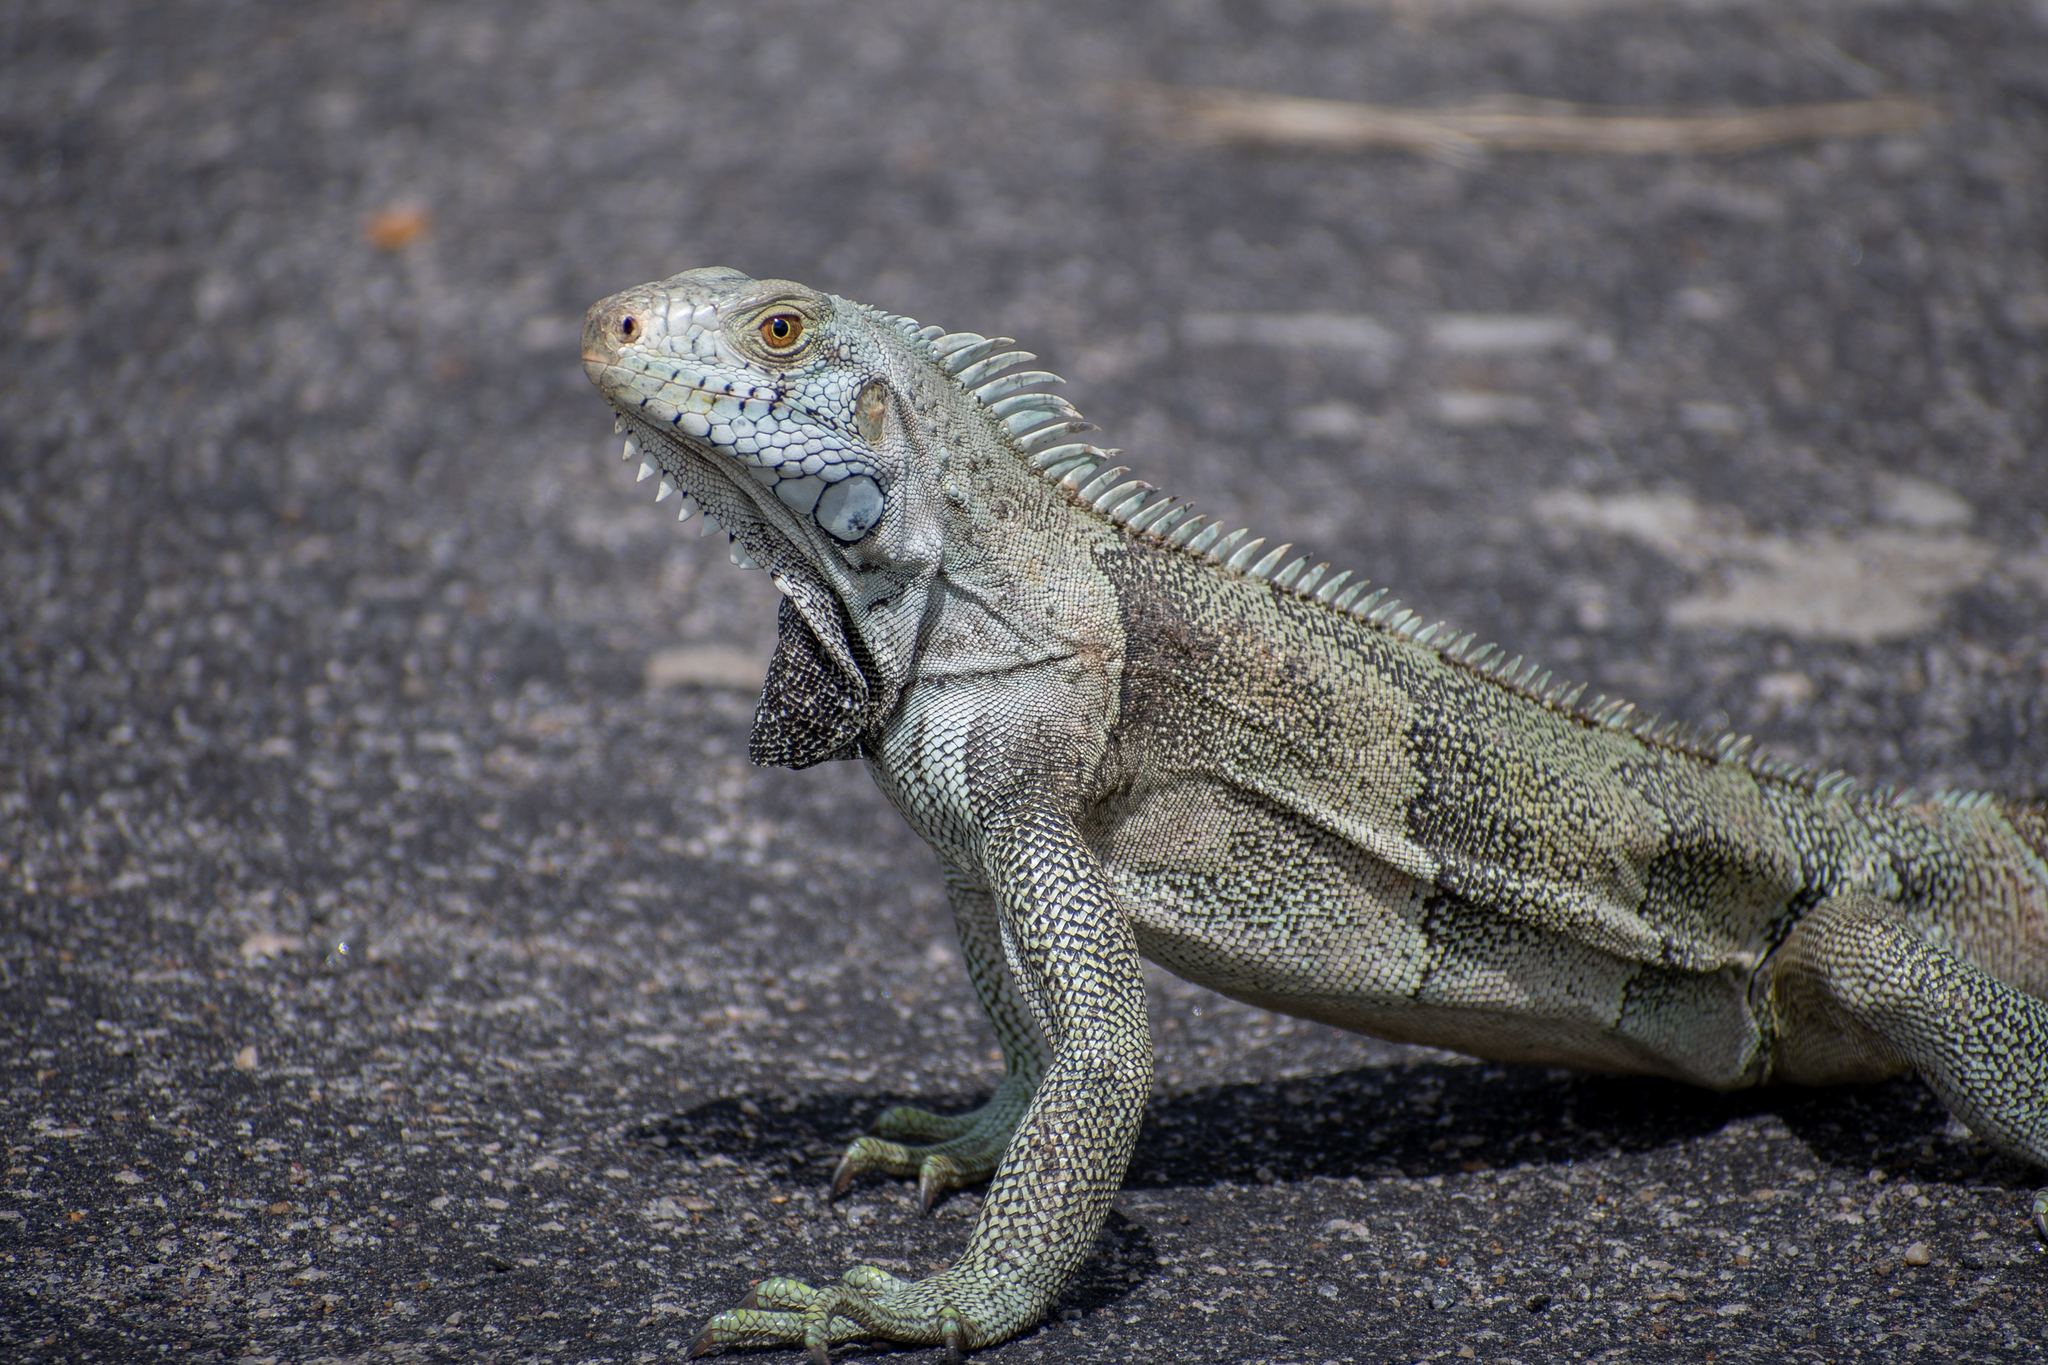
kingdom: Animalia
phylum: Chordata
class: Squamata
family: Iguanidae
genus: Iguana
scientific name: Iguana iguana
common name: Green iguana
